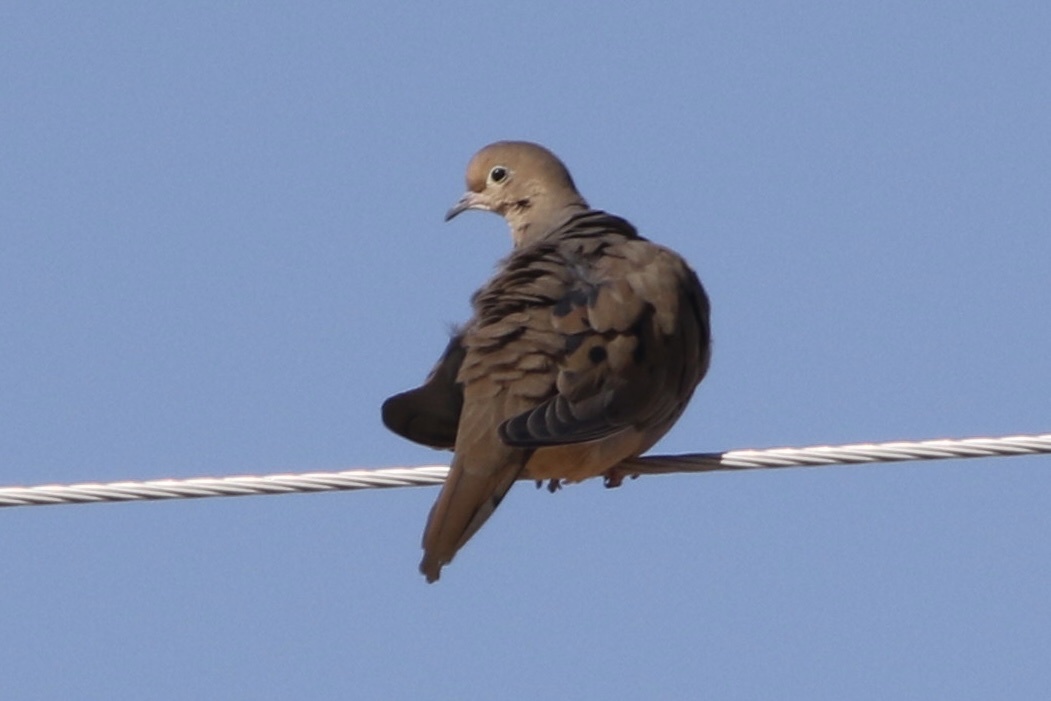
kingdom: Animalia
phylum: Chordata
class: Aves
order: Columbiformes
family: Columbidae
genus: Zenaida
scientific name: Zenaida macroura
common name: Mourning dove
